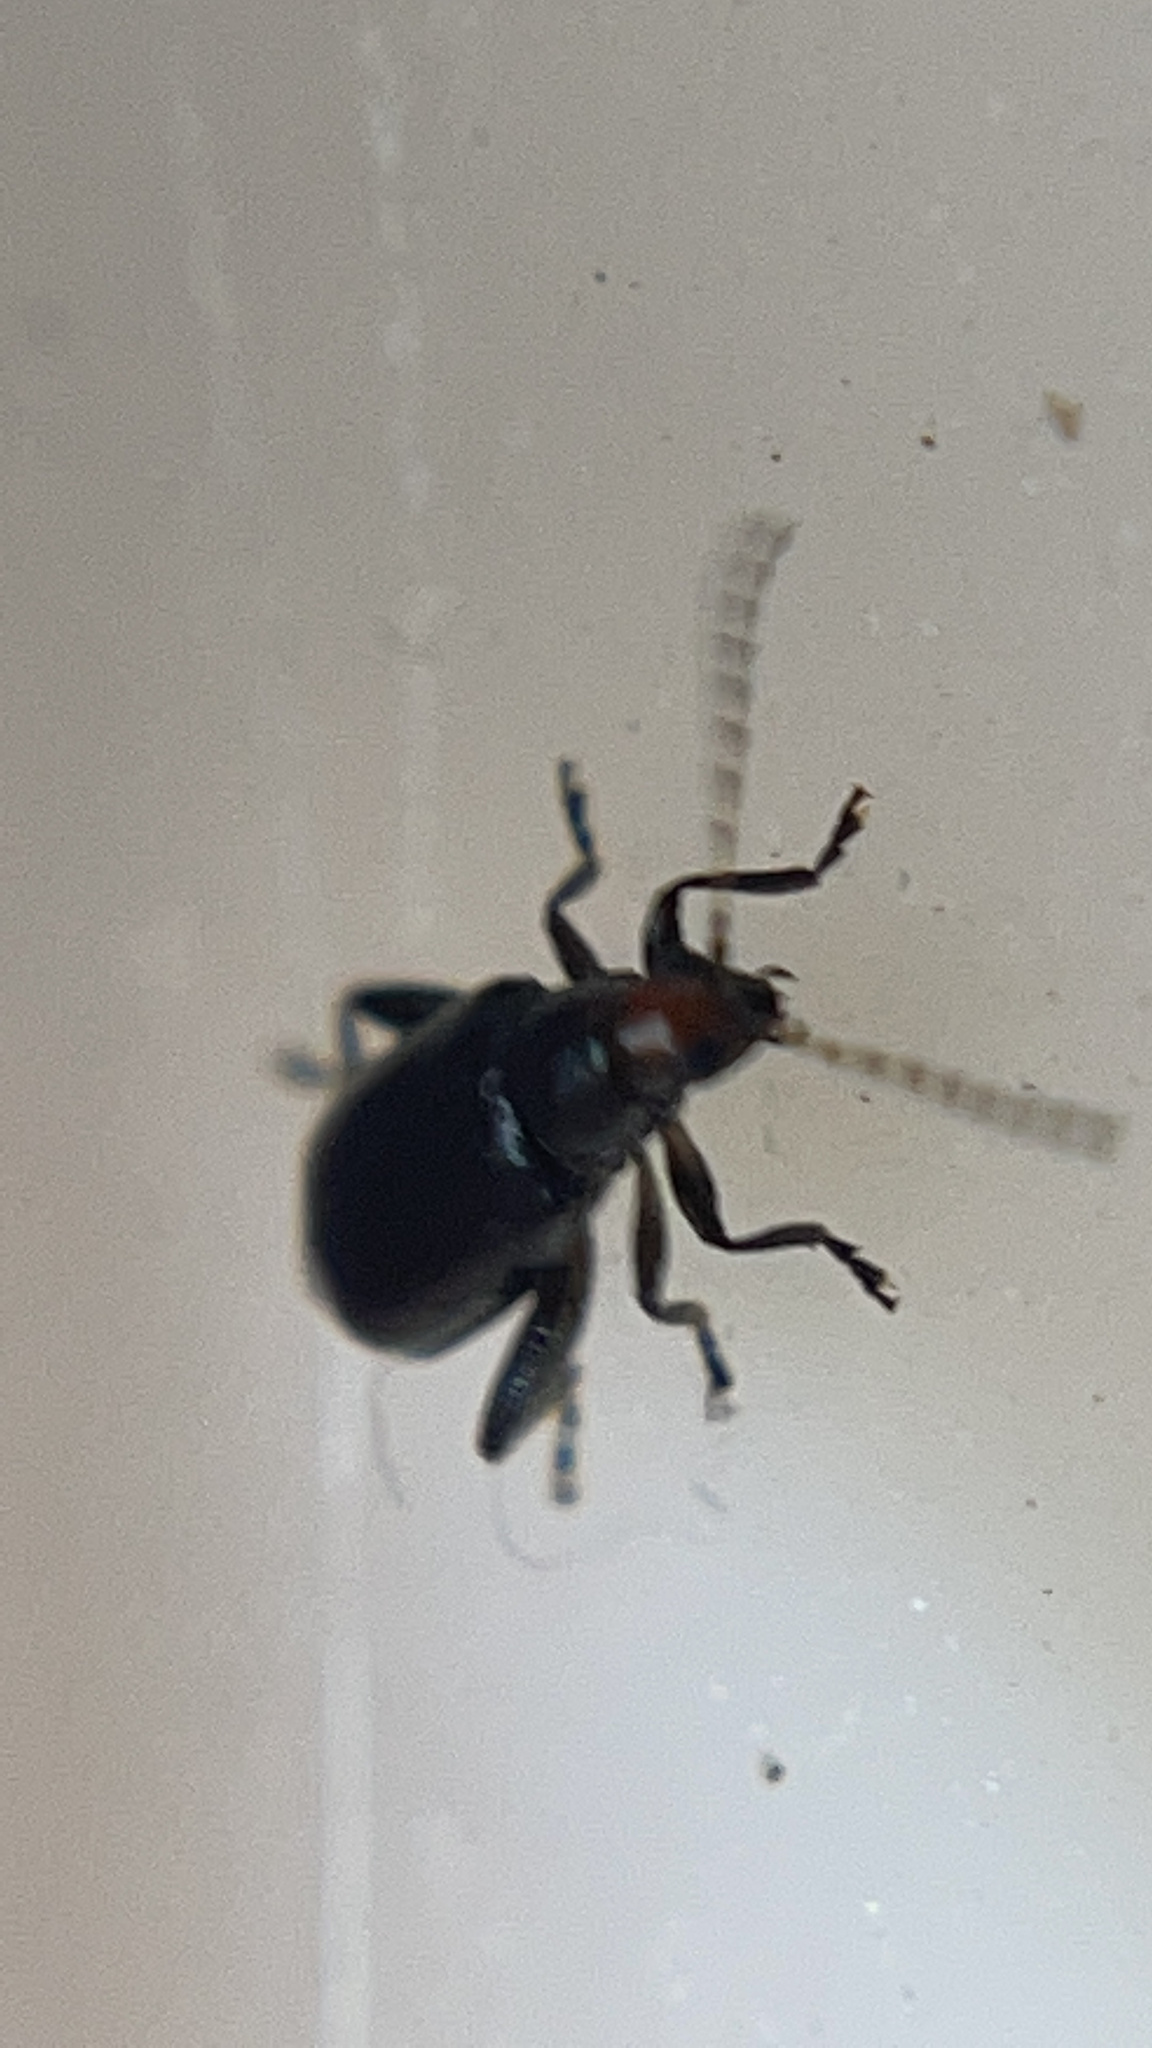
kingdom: Animalia
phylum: Arthropoda
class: Insecta
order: Coleoptera
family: Chrysomelidae
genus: Systena
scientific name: Systena frontalis
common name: Red-headed flea beetle
